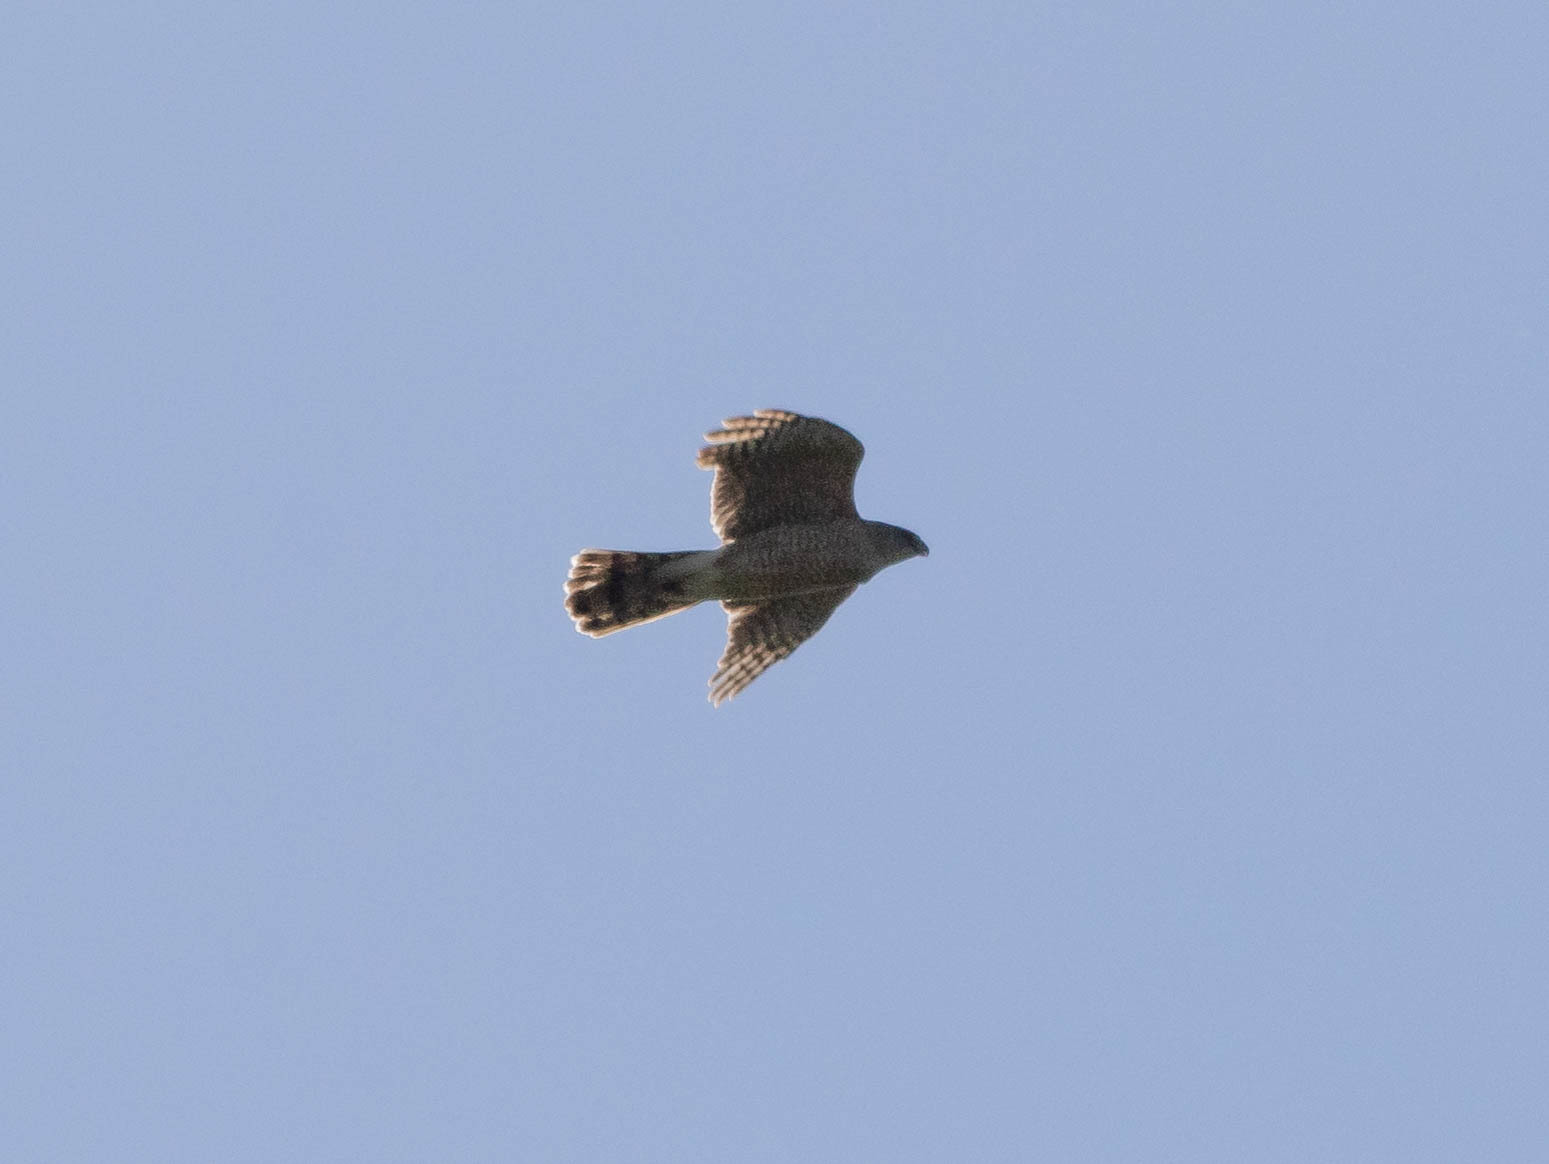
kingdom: Animalia
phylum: Chordata
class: Aves
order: Accipitriformes
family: Accipitridae
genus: Accipiter
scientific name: Accipiter cooperii
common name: Cooper's hawk
